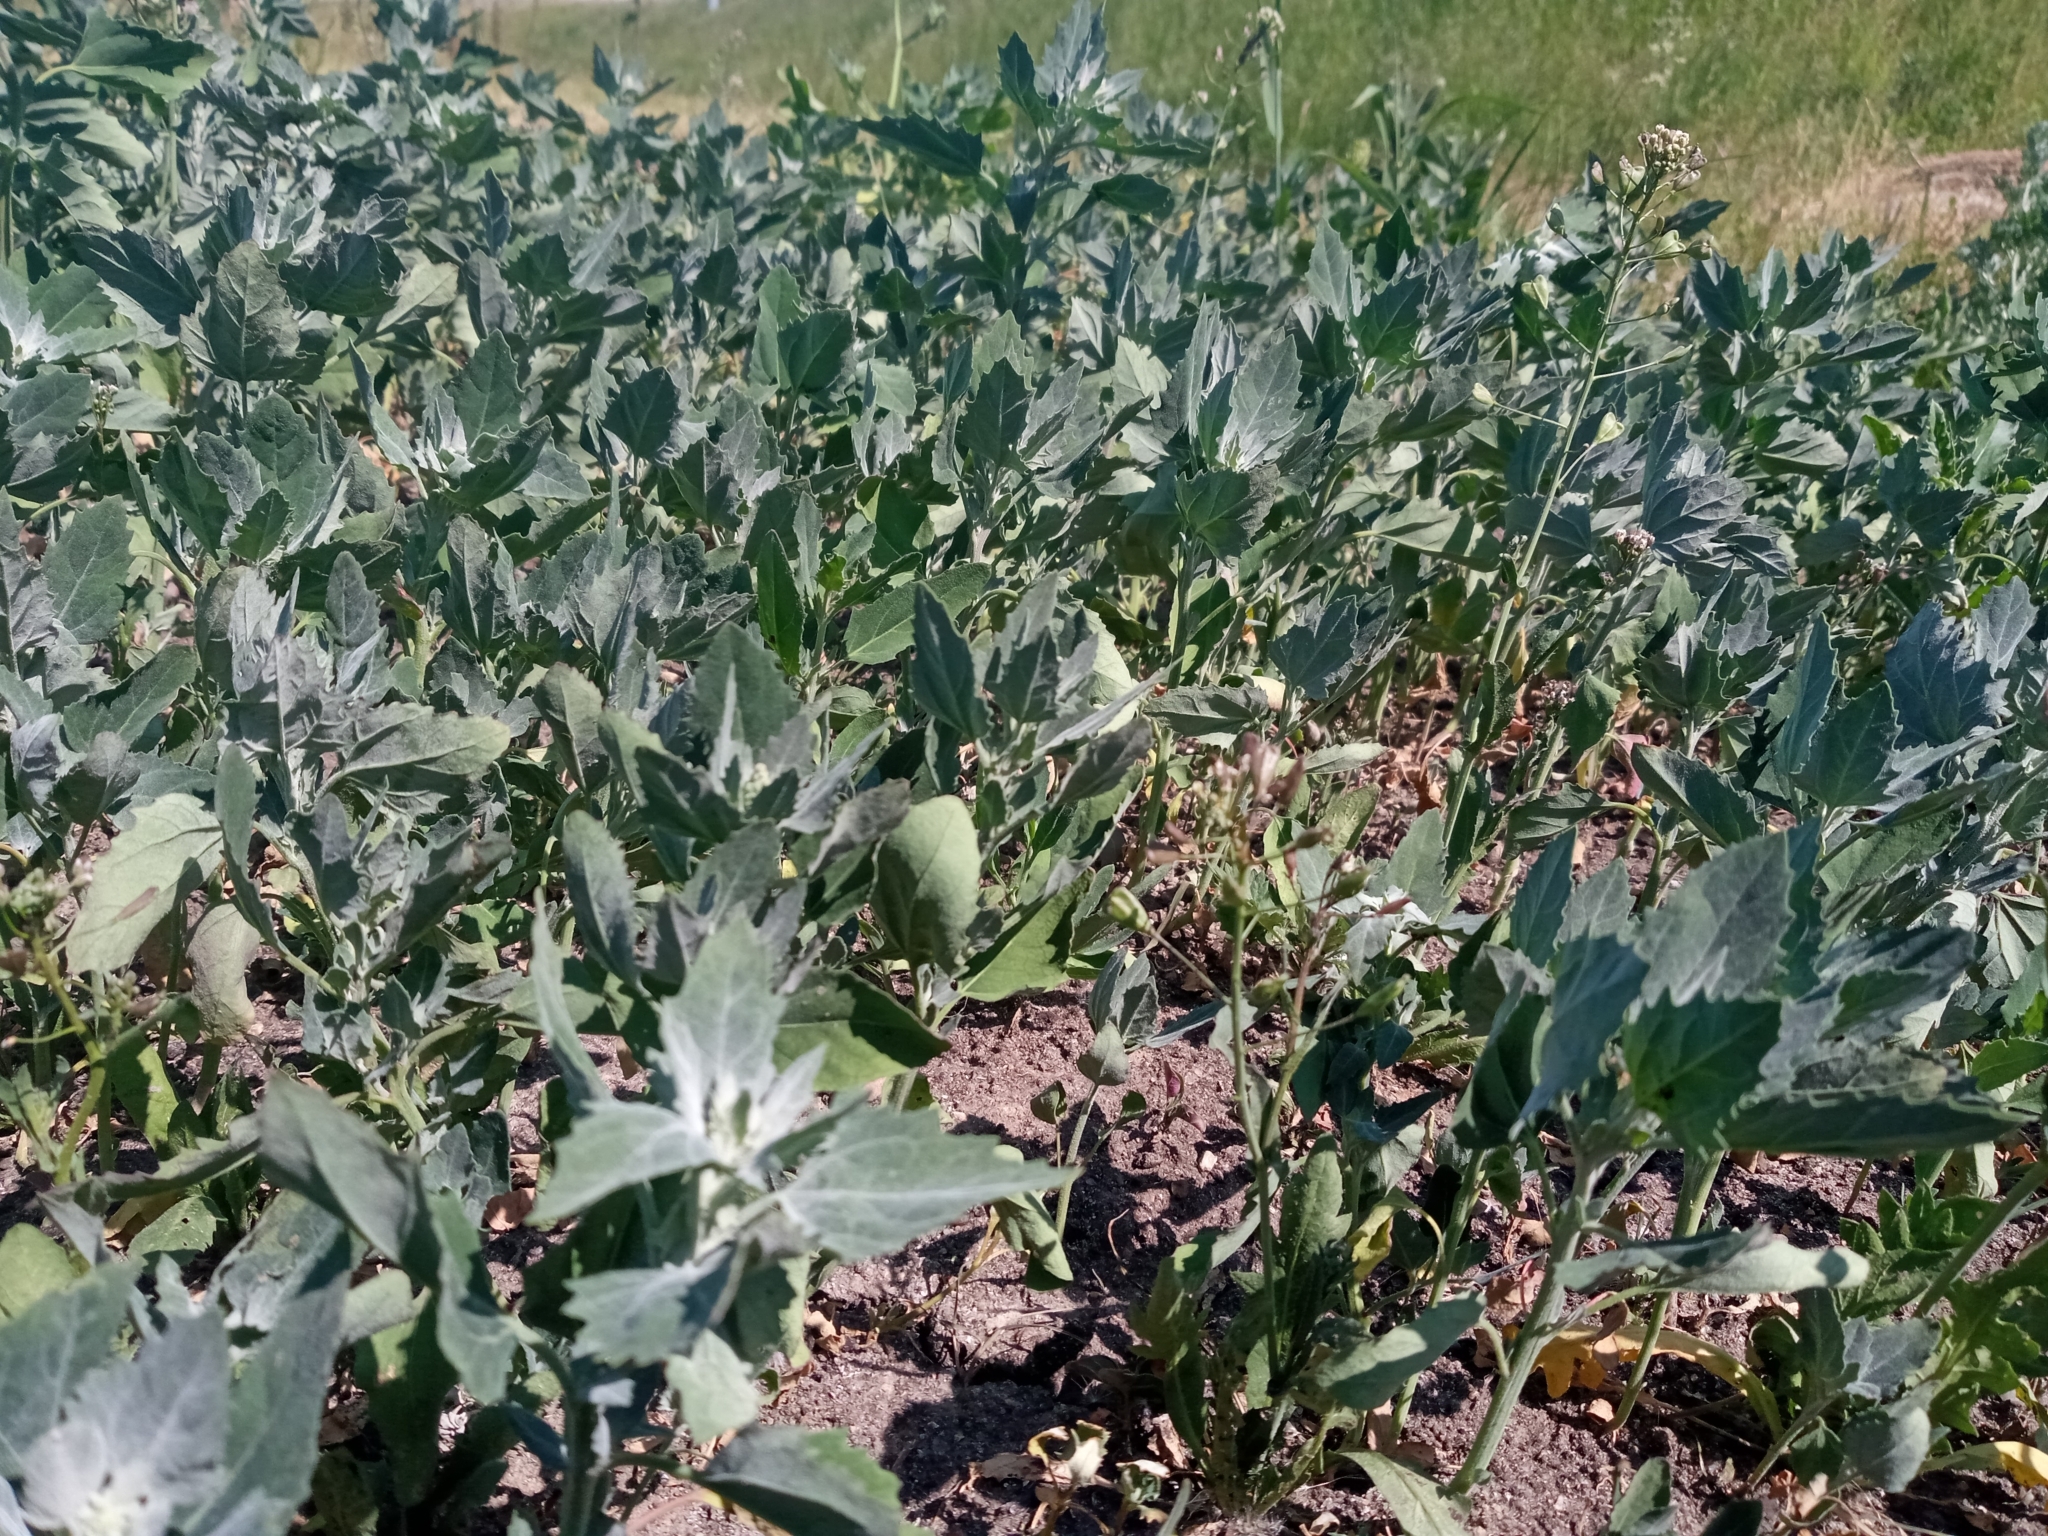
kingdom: Plantae
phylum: Tracheophyta
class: Magnoliopsida
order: Caryophyllales
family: Amaranthaceae
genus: Chenopodium
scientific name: Chenopodium album
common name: Fat-hen
